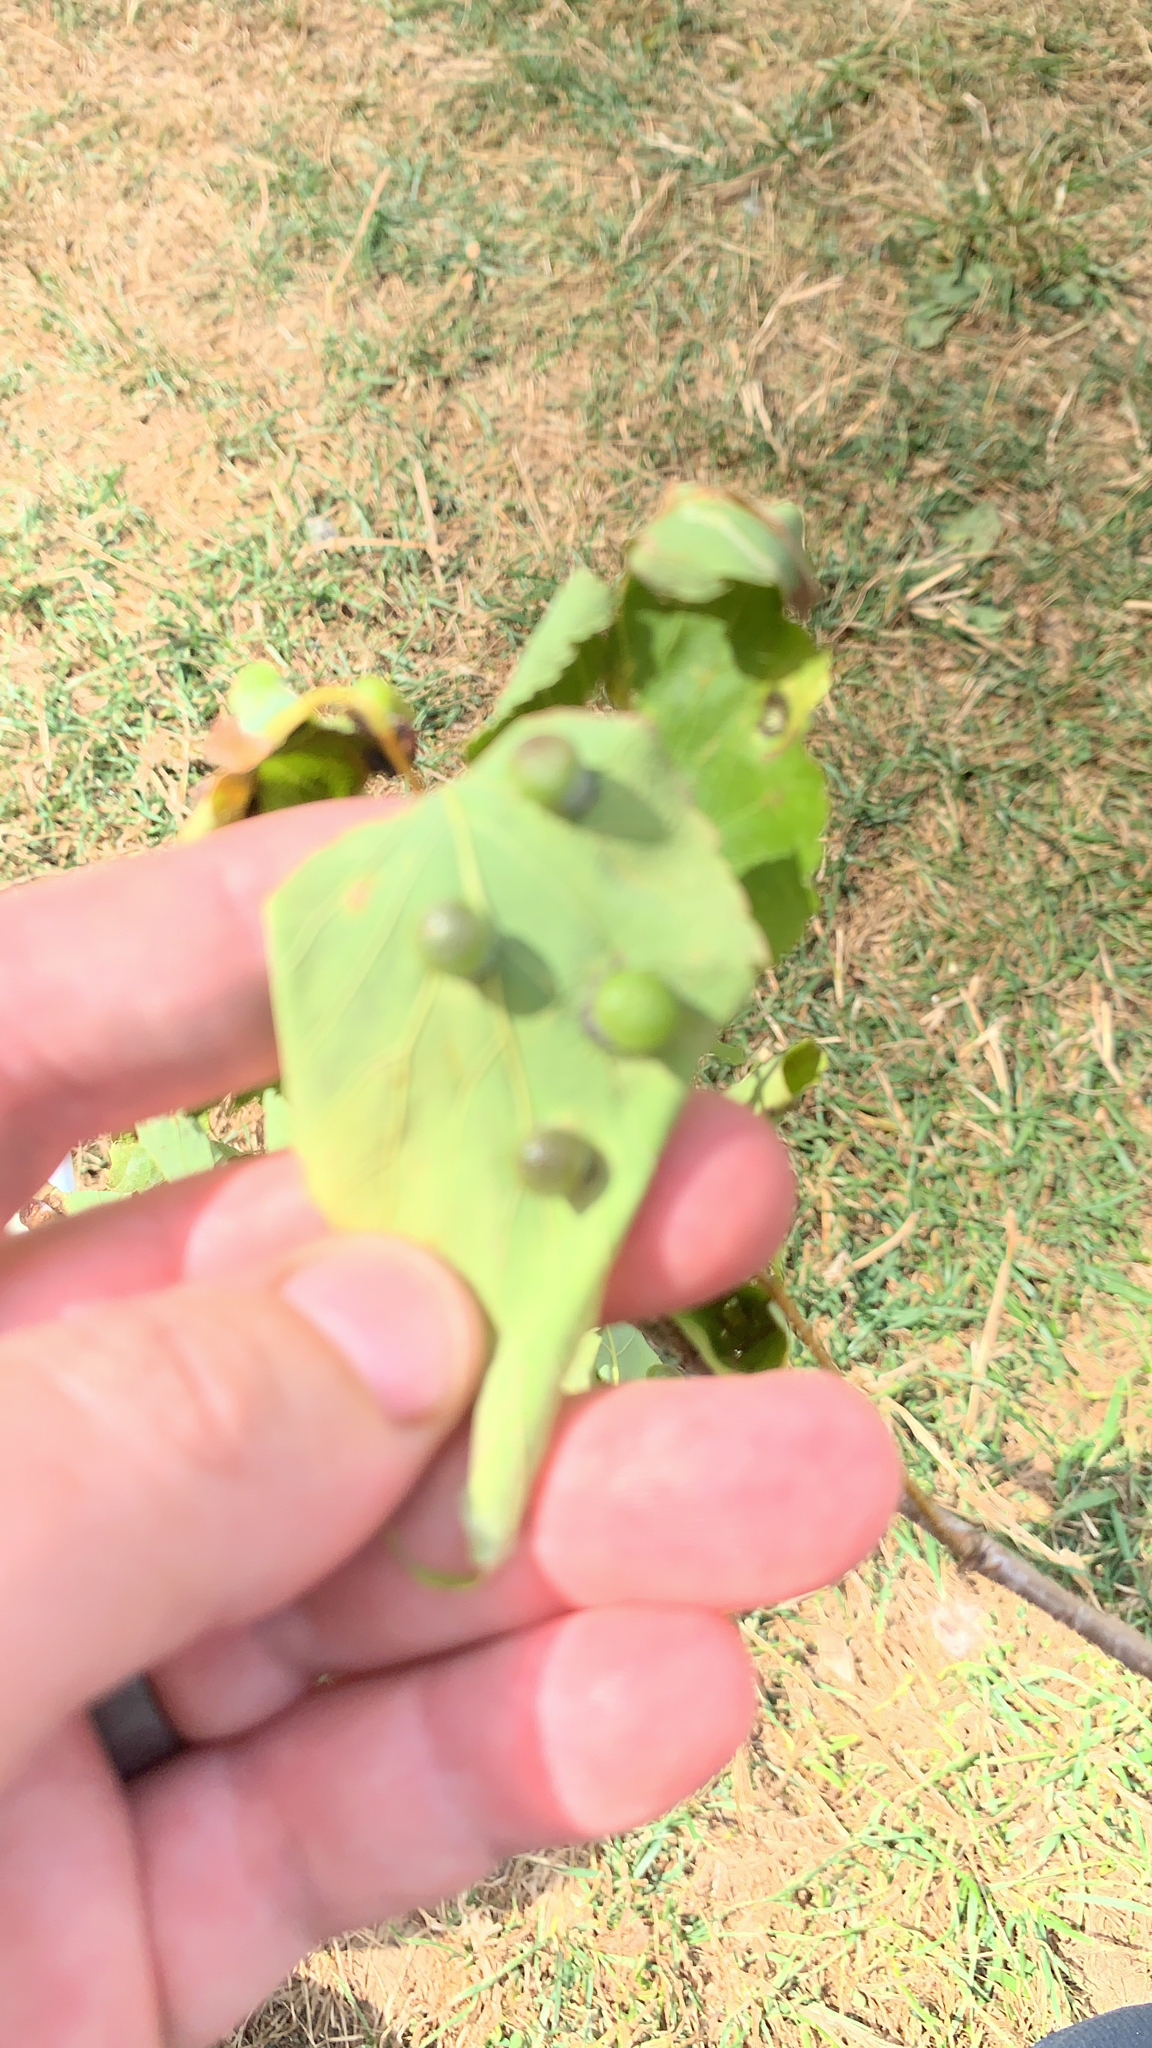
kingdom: Animalia
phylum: Arthropoda
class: Insecta
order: Hemiptera
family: Aphalaridae
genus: Pachypsylla
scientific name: Pachypsylla celtidismamma
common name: Hackberry nipplegall psyllid
